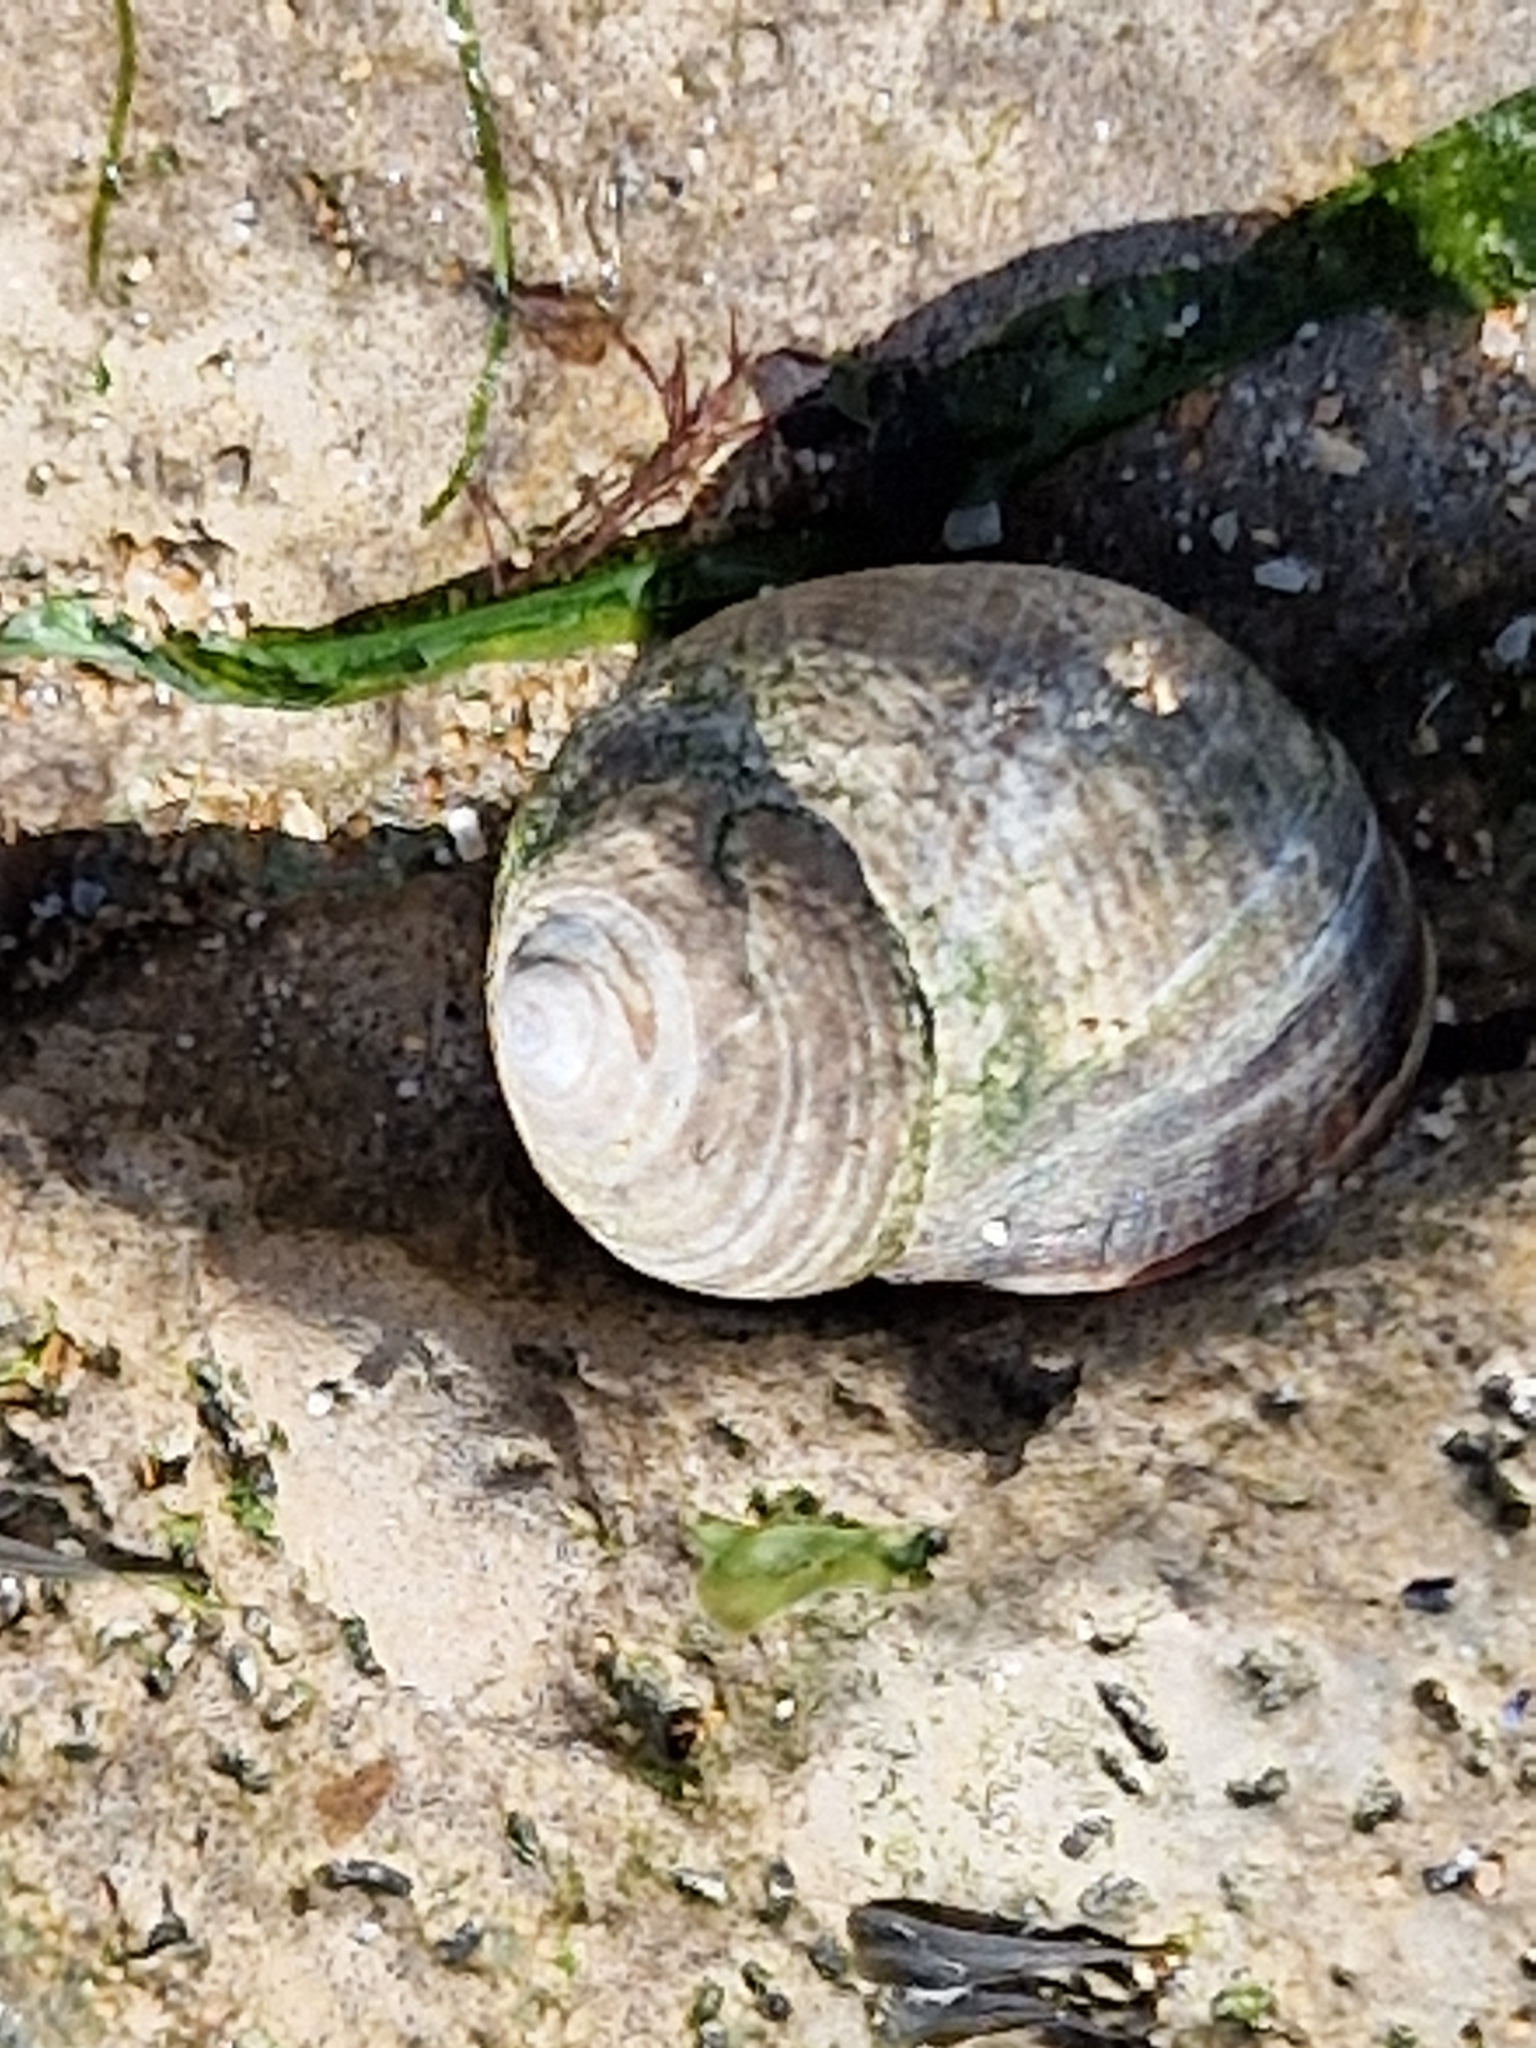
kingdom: Animalia
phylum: Mollusca
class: Gastropoda
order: Littorinimorpha
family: Littorinidae
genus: Littorina
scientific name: Littorina littorea
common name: Common periwinkle
